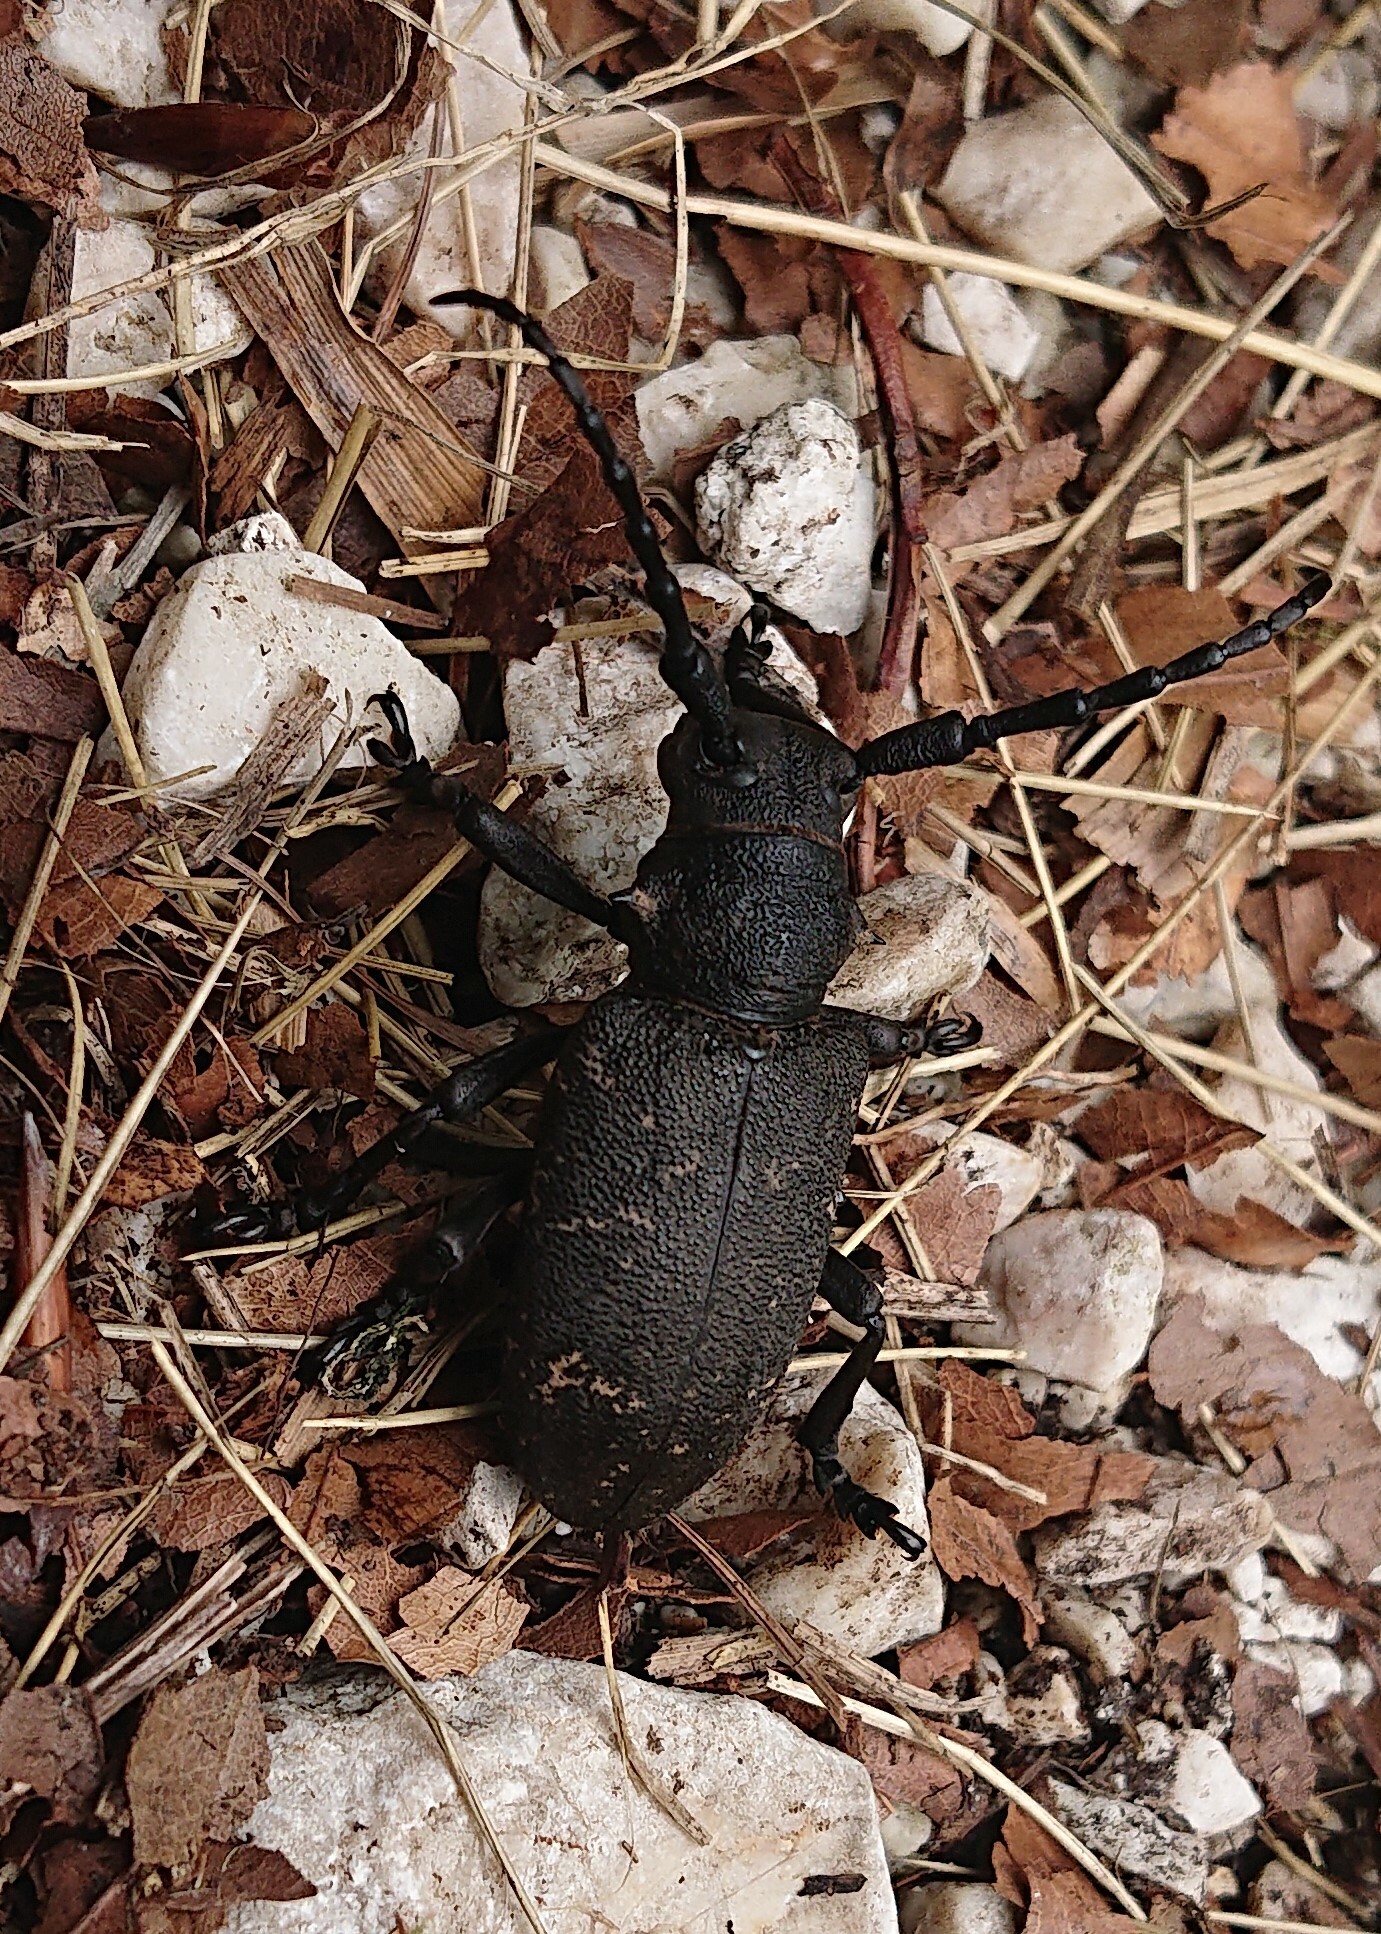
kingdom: Animalia
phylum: Arthropoda
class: Insecta
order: Coleoptera
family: Cerambycidae
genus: Lamia
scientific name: Lamia textor
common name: Weaver beetle
